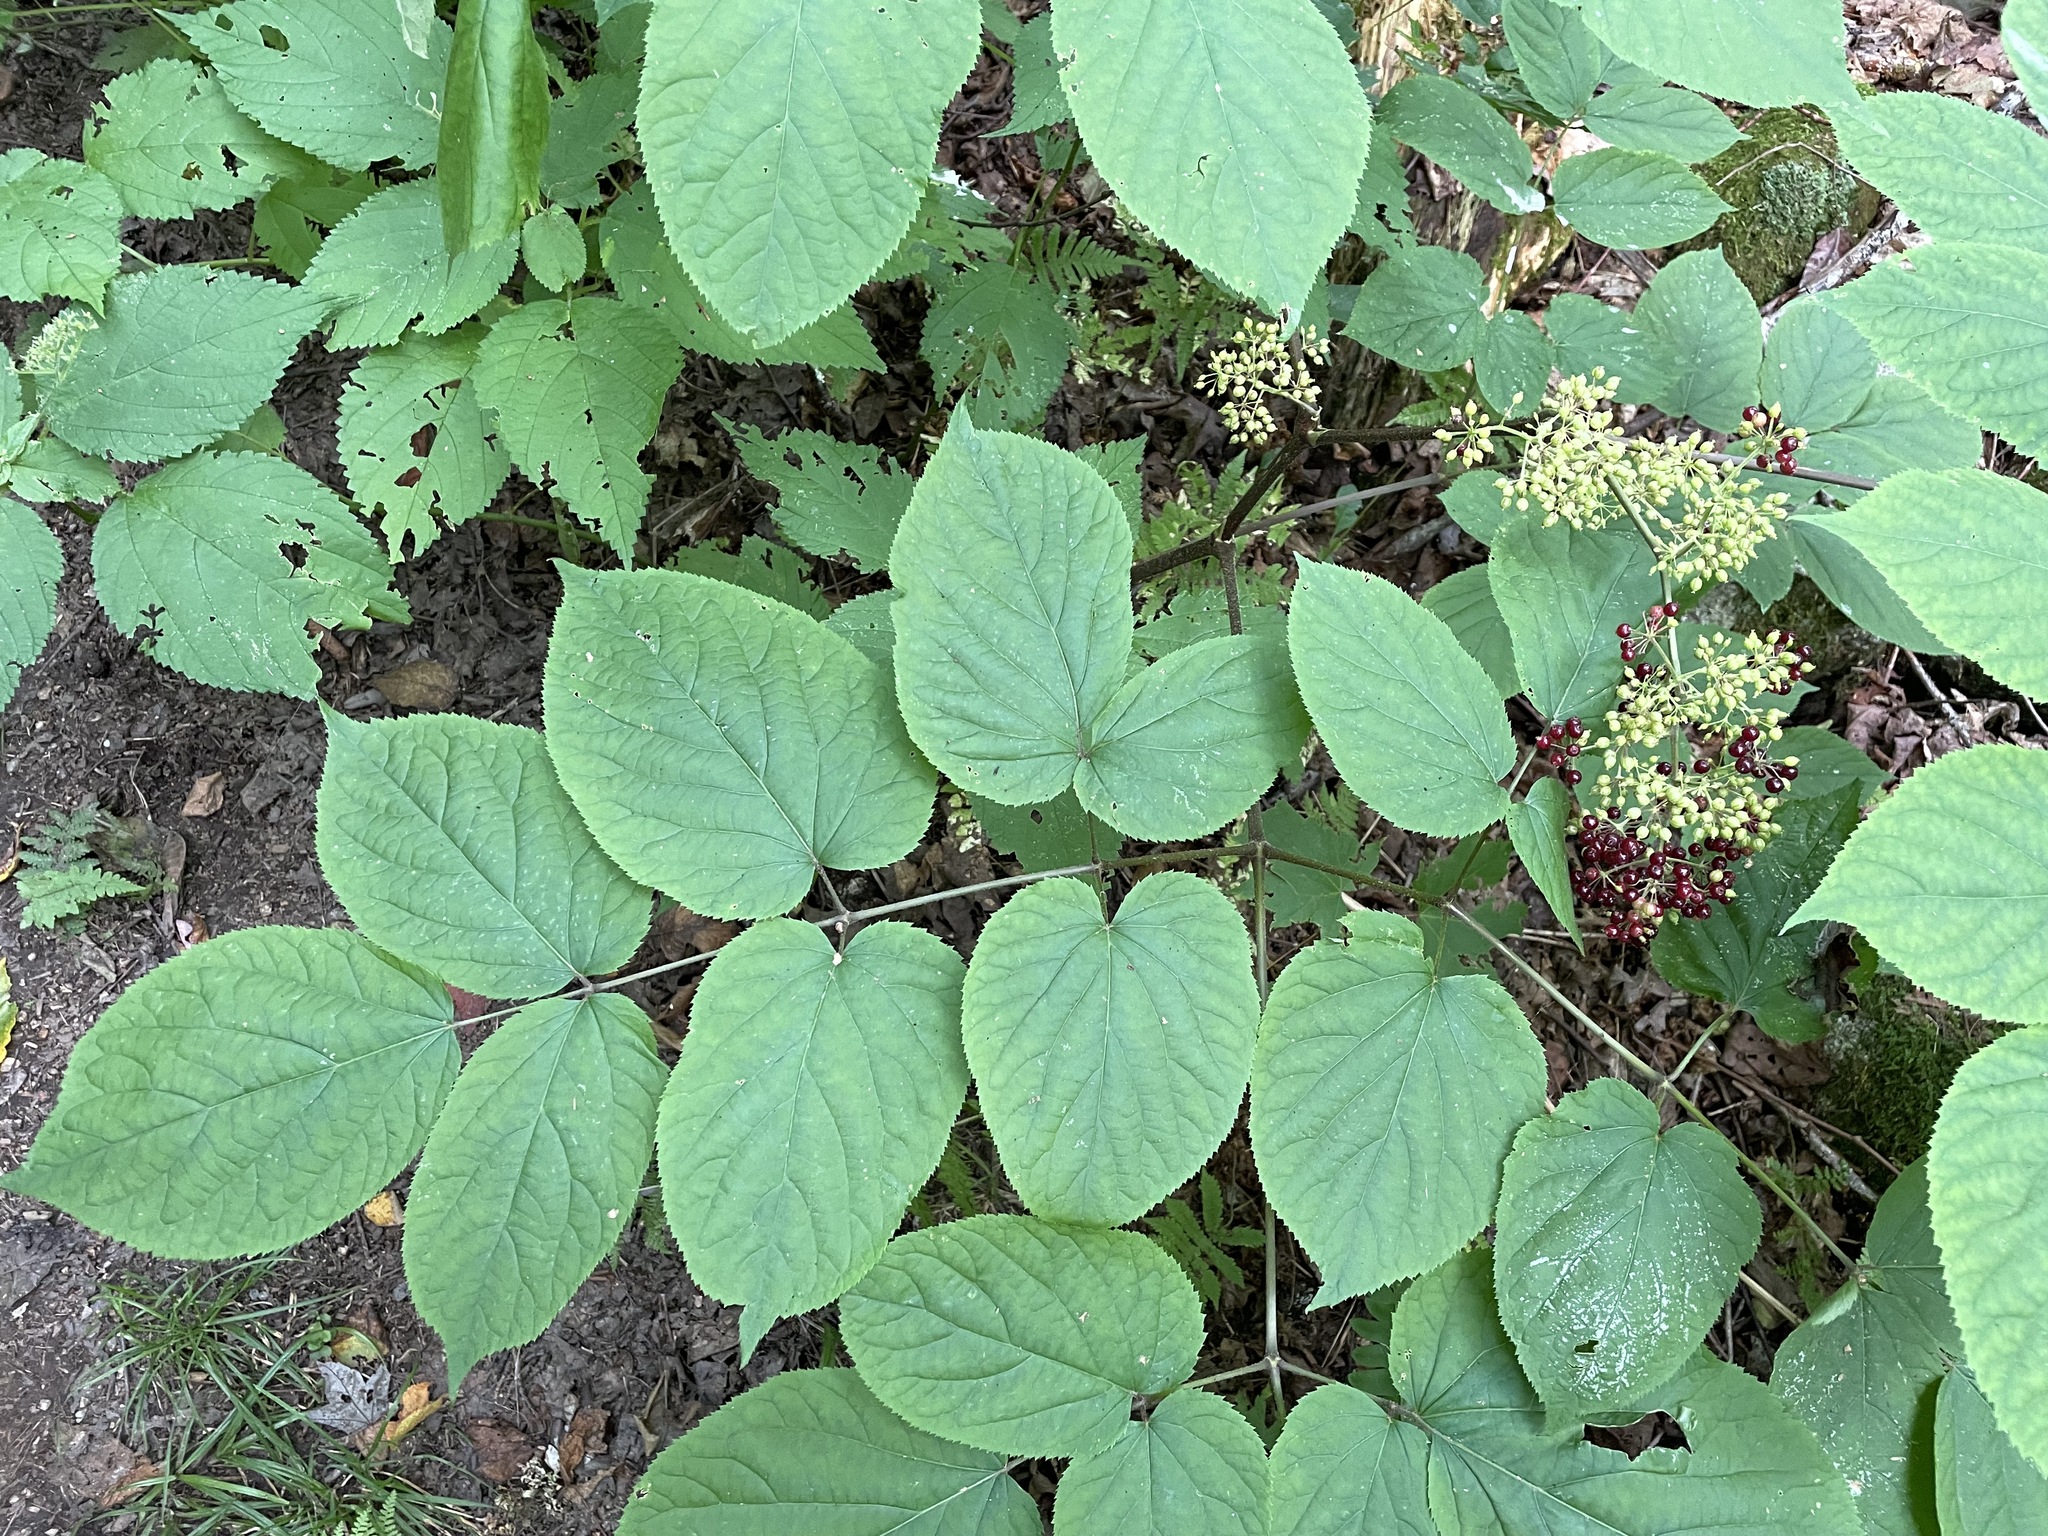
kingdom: Plantae
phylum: Tracheophyta
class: Magnoliopsida
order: Apiales
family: Araliaceae
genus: Aralia
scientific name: Aralia racemosa
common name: American-spikenard
